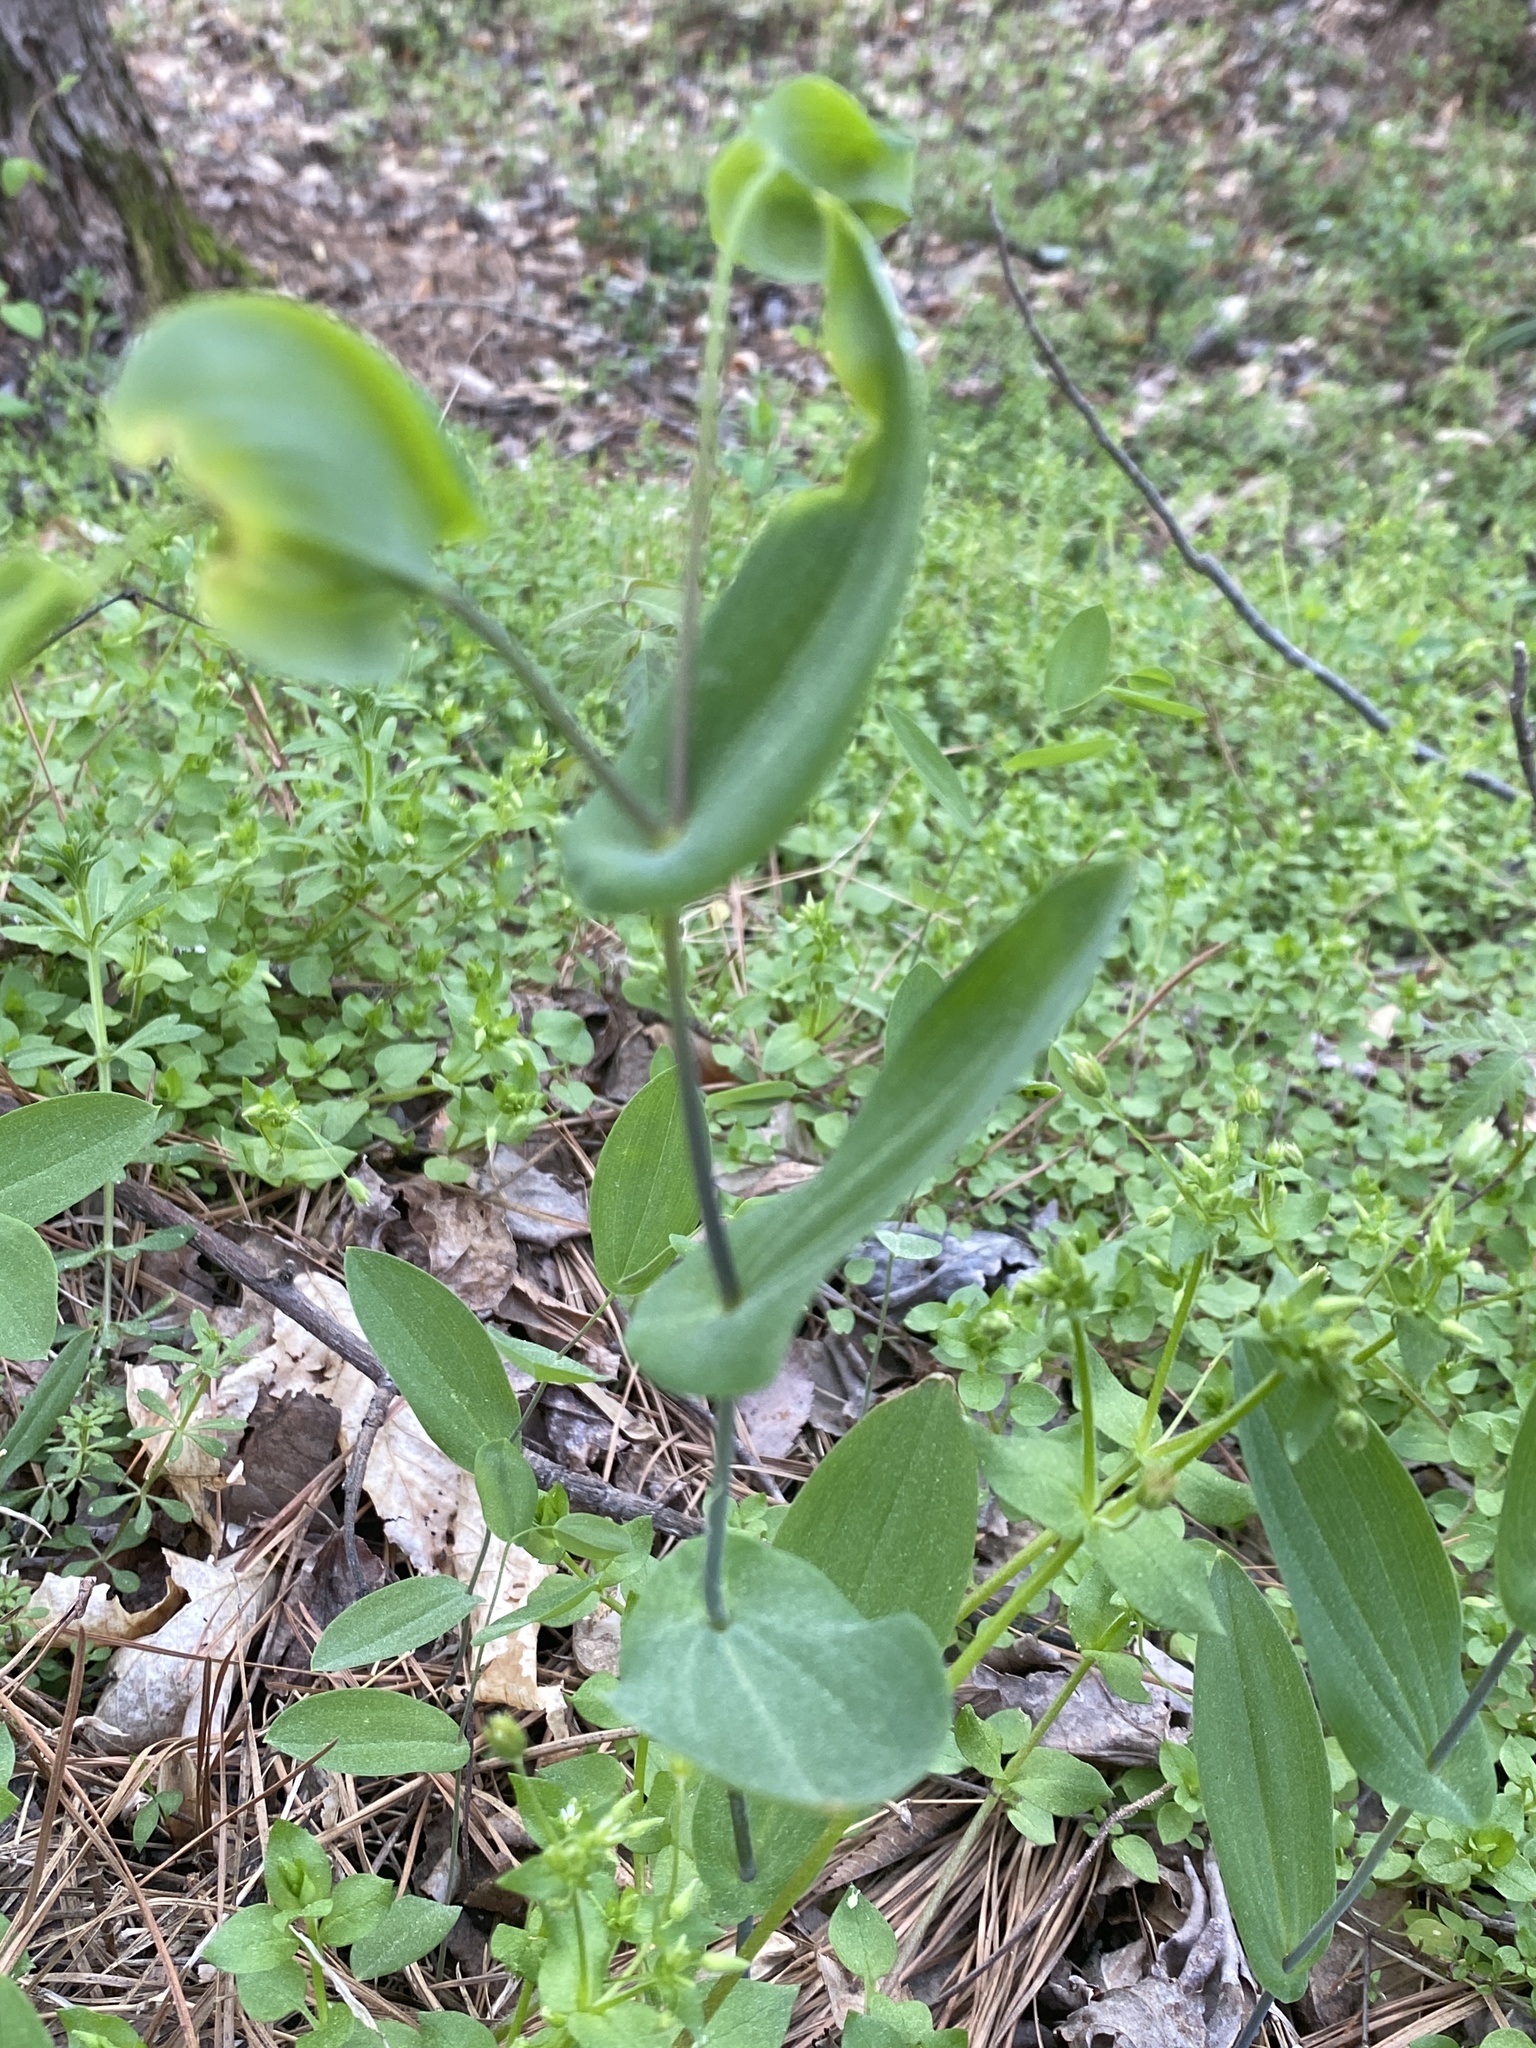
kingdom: Plantae
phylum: Tracheophyta
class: Liliopsida
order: Liliales
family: Colchicaceae
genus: Uvularia
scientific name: Uvularia perfoliata
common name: Perfoliate bellwort
